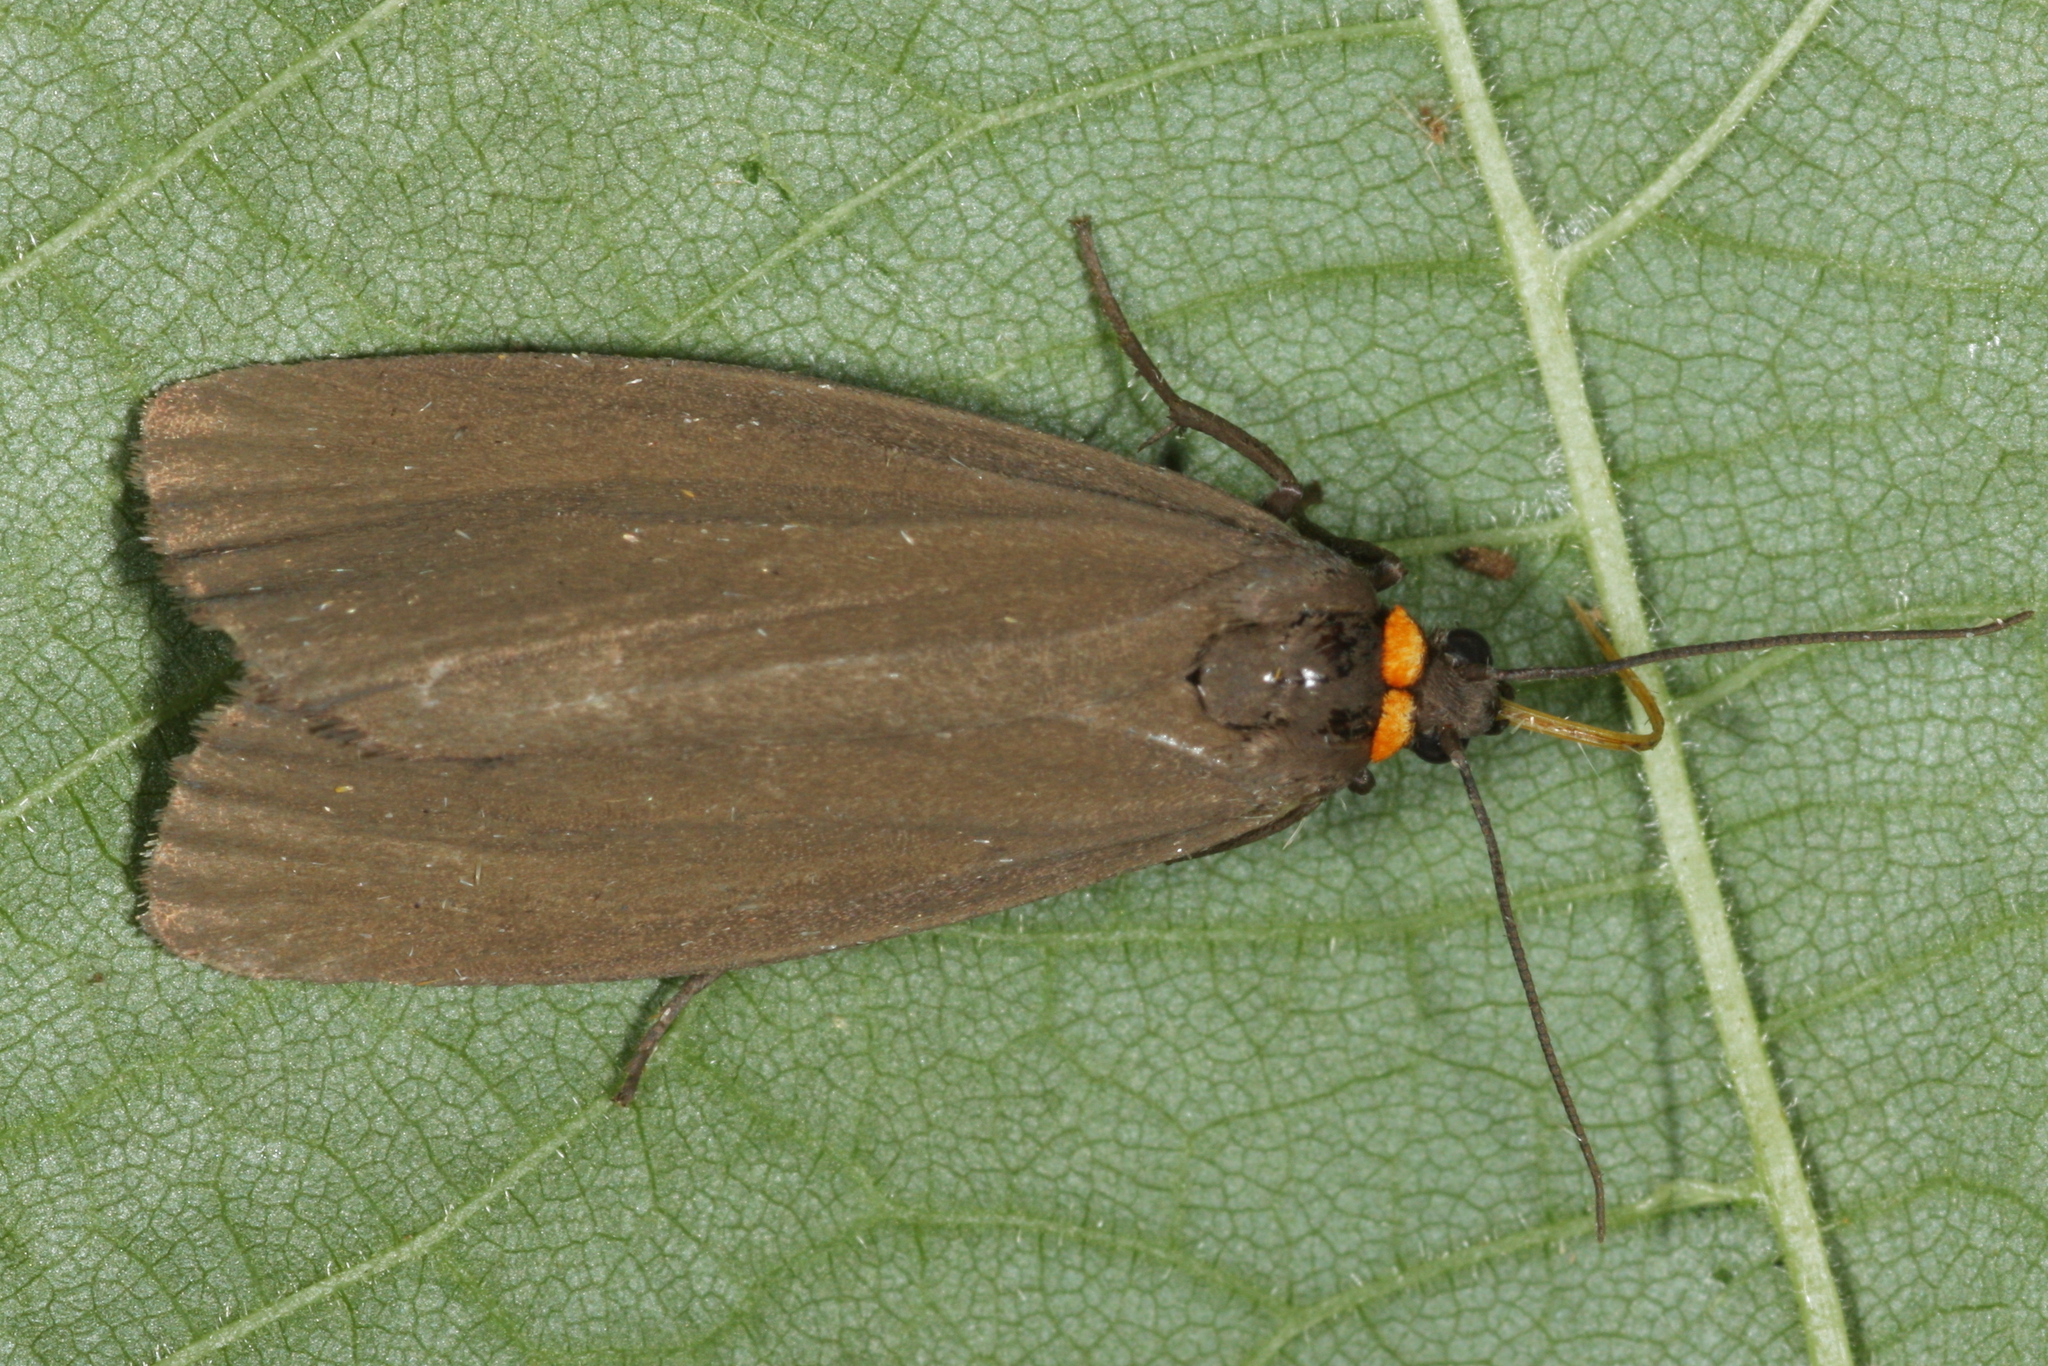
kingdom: Animalia
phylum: Arthropoda
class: Insecta
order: Lepidoptera
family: Erebidae
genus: Atolmis
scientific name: Atolmis rubricollis
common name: Red-necked footman
